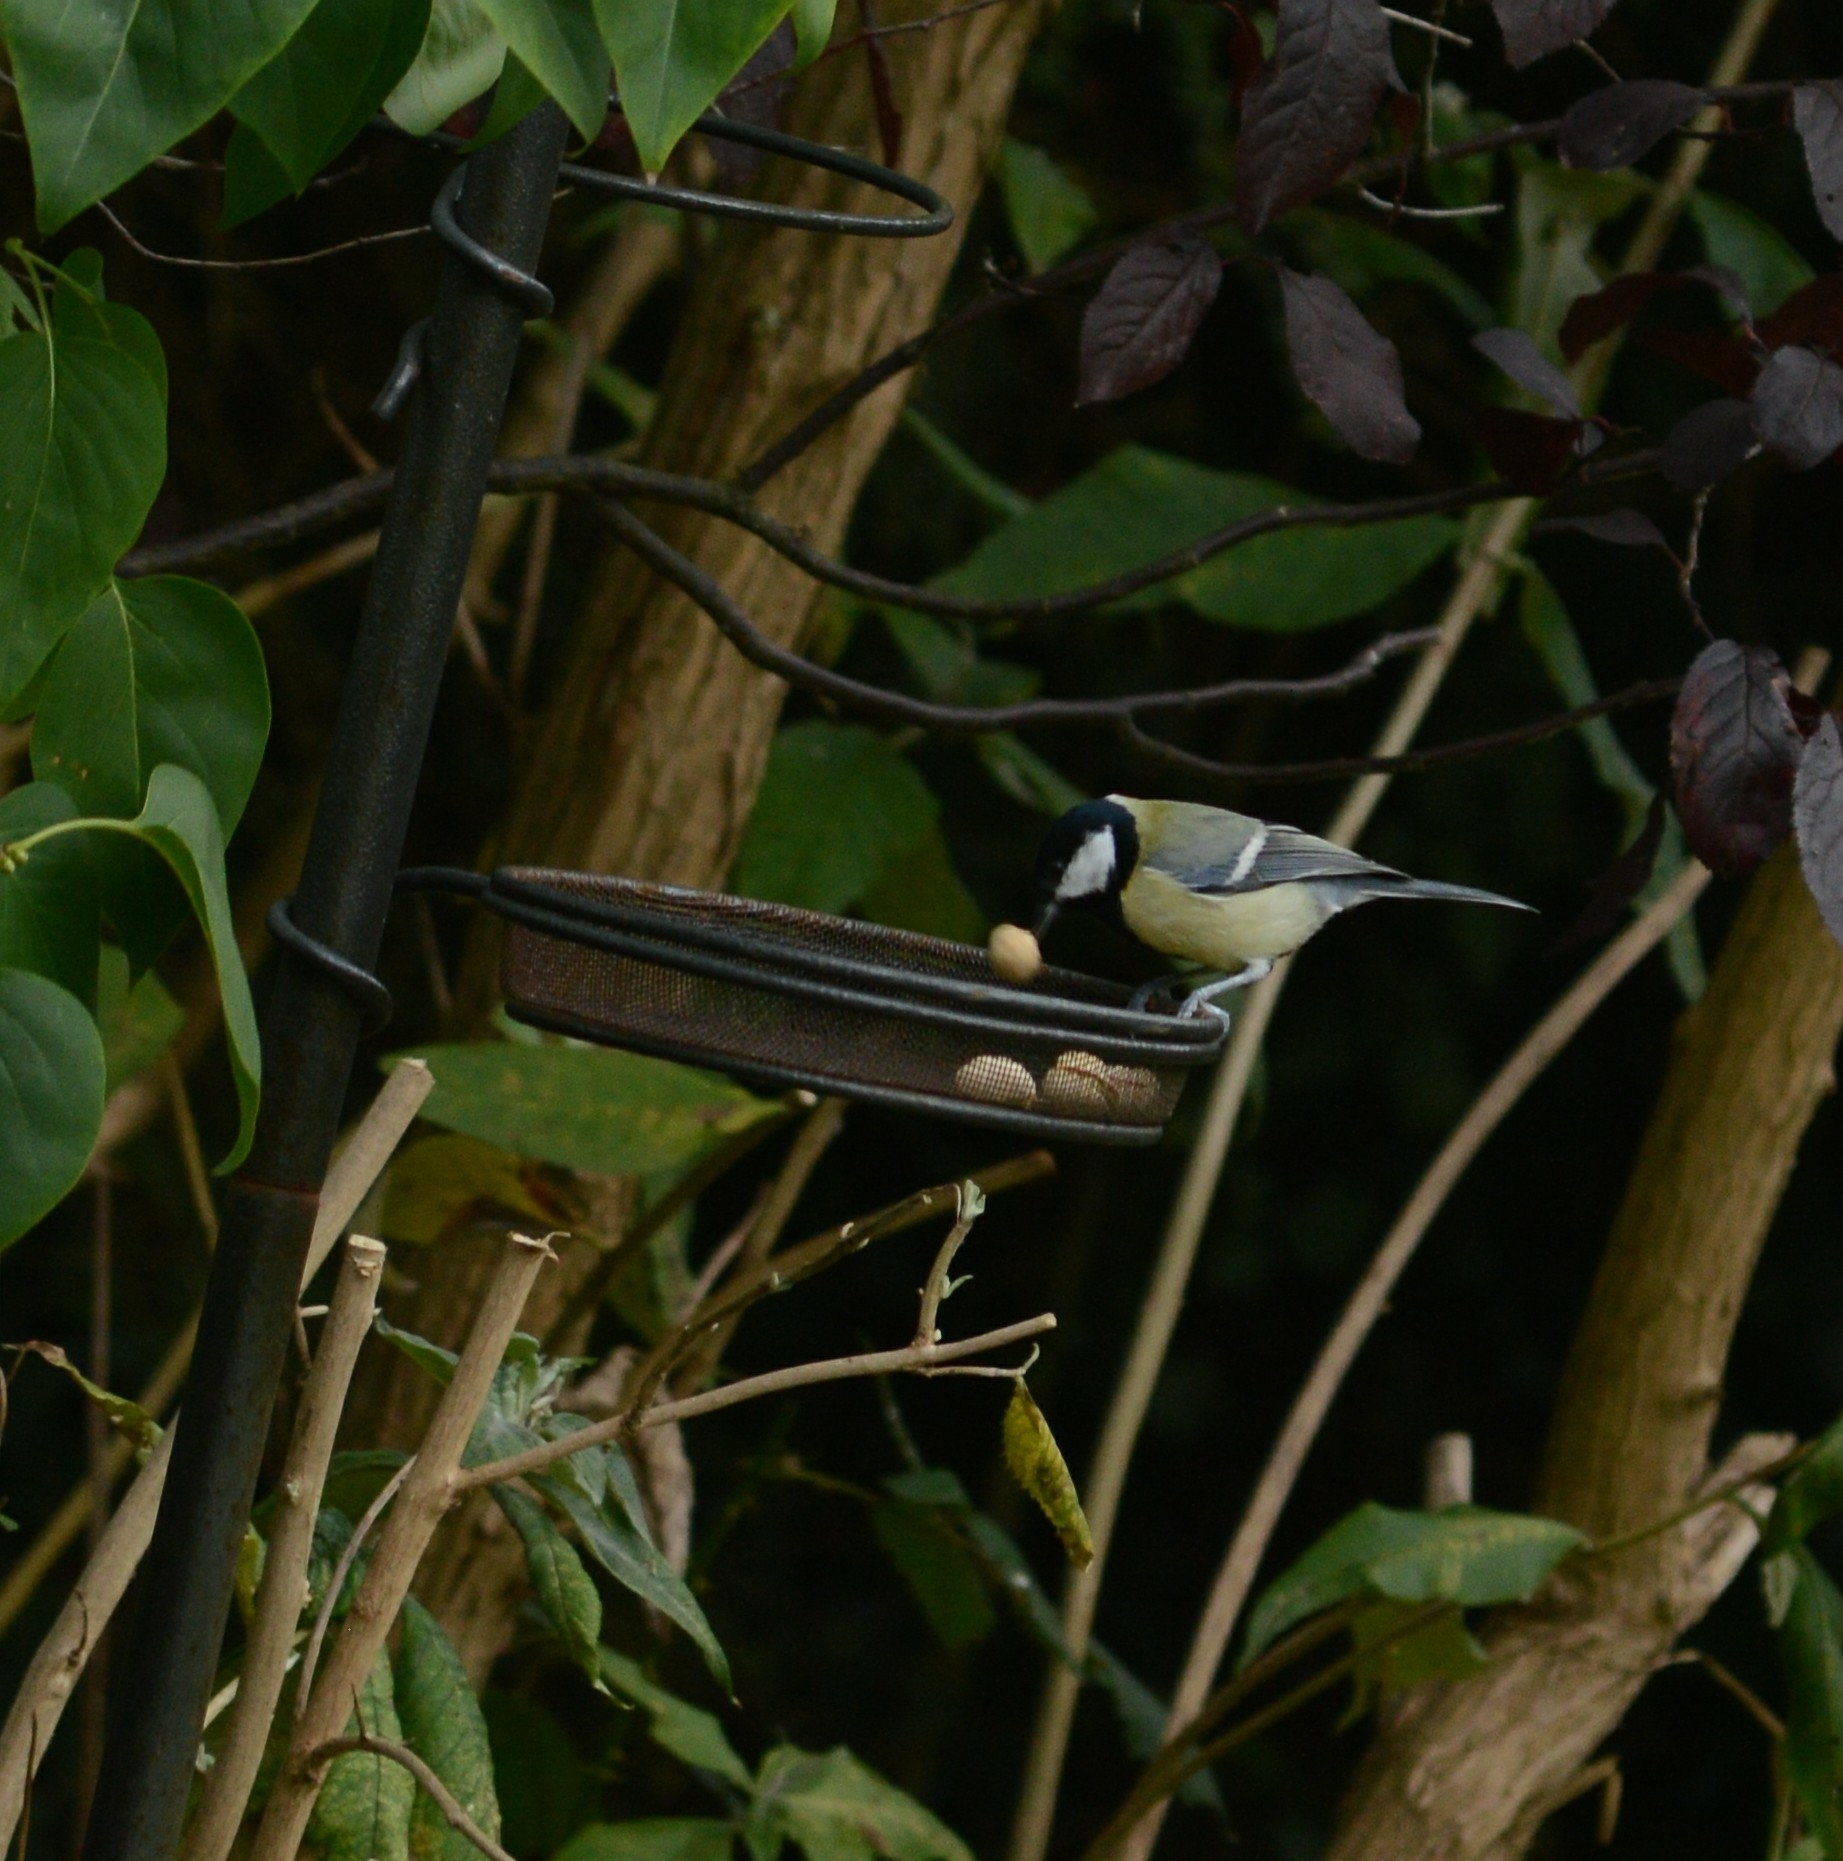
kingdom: Animalia
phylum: Chordata
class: Aves
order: Passeriformes
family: Paridae
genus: Parus
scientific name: Parus major
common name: Great tit
